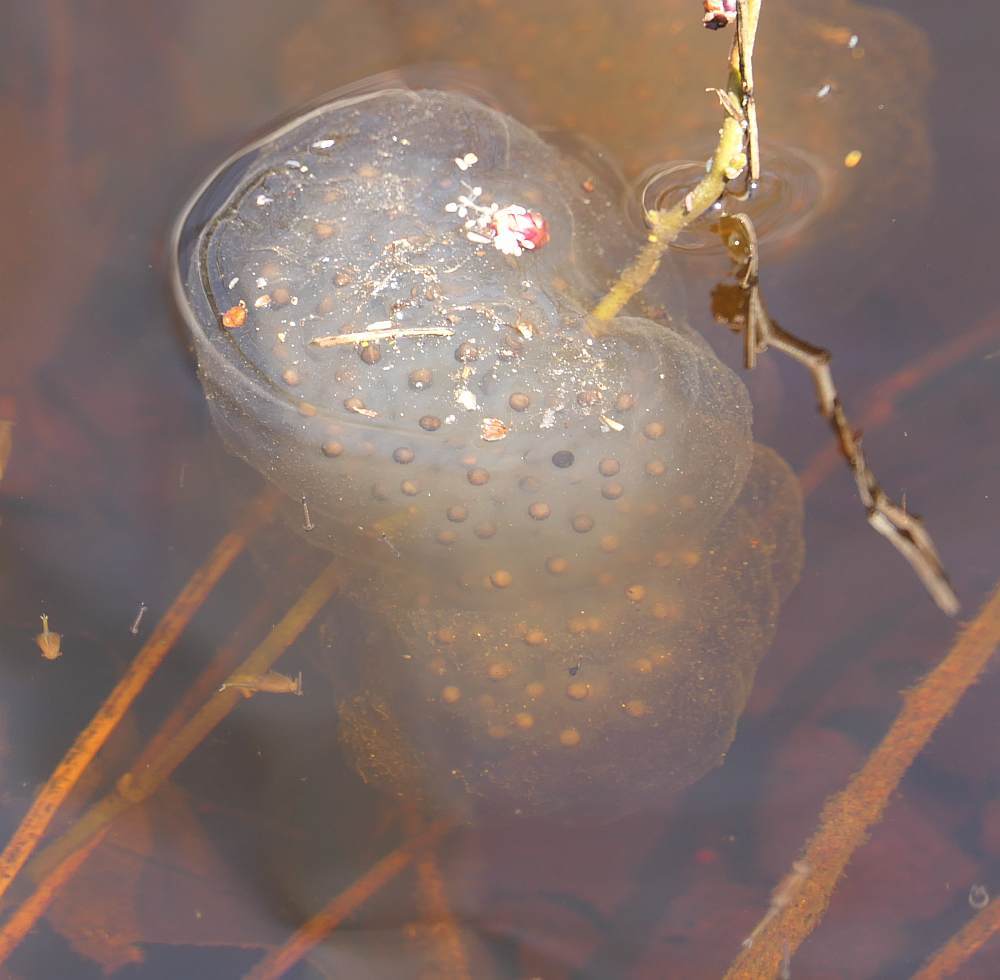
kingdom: Animalia
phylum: Chordata
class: Amphibia
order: Caudata
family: Ambystomatidae
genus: Ambystoma
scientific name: Ambystoma maculatum
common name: Spotted salamander
